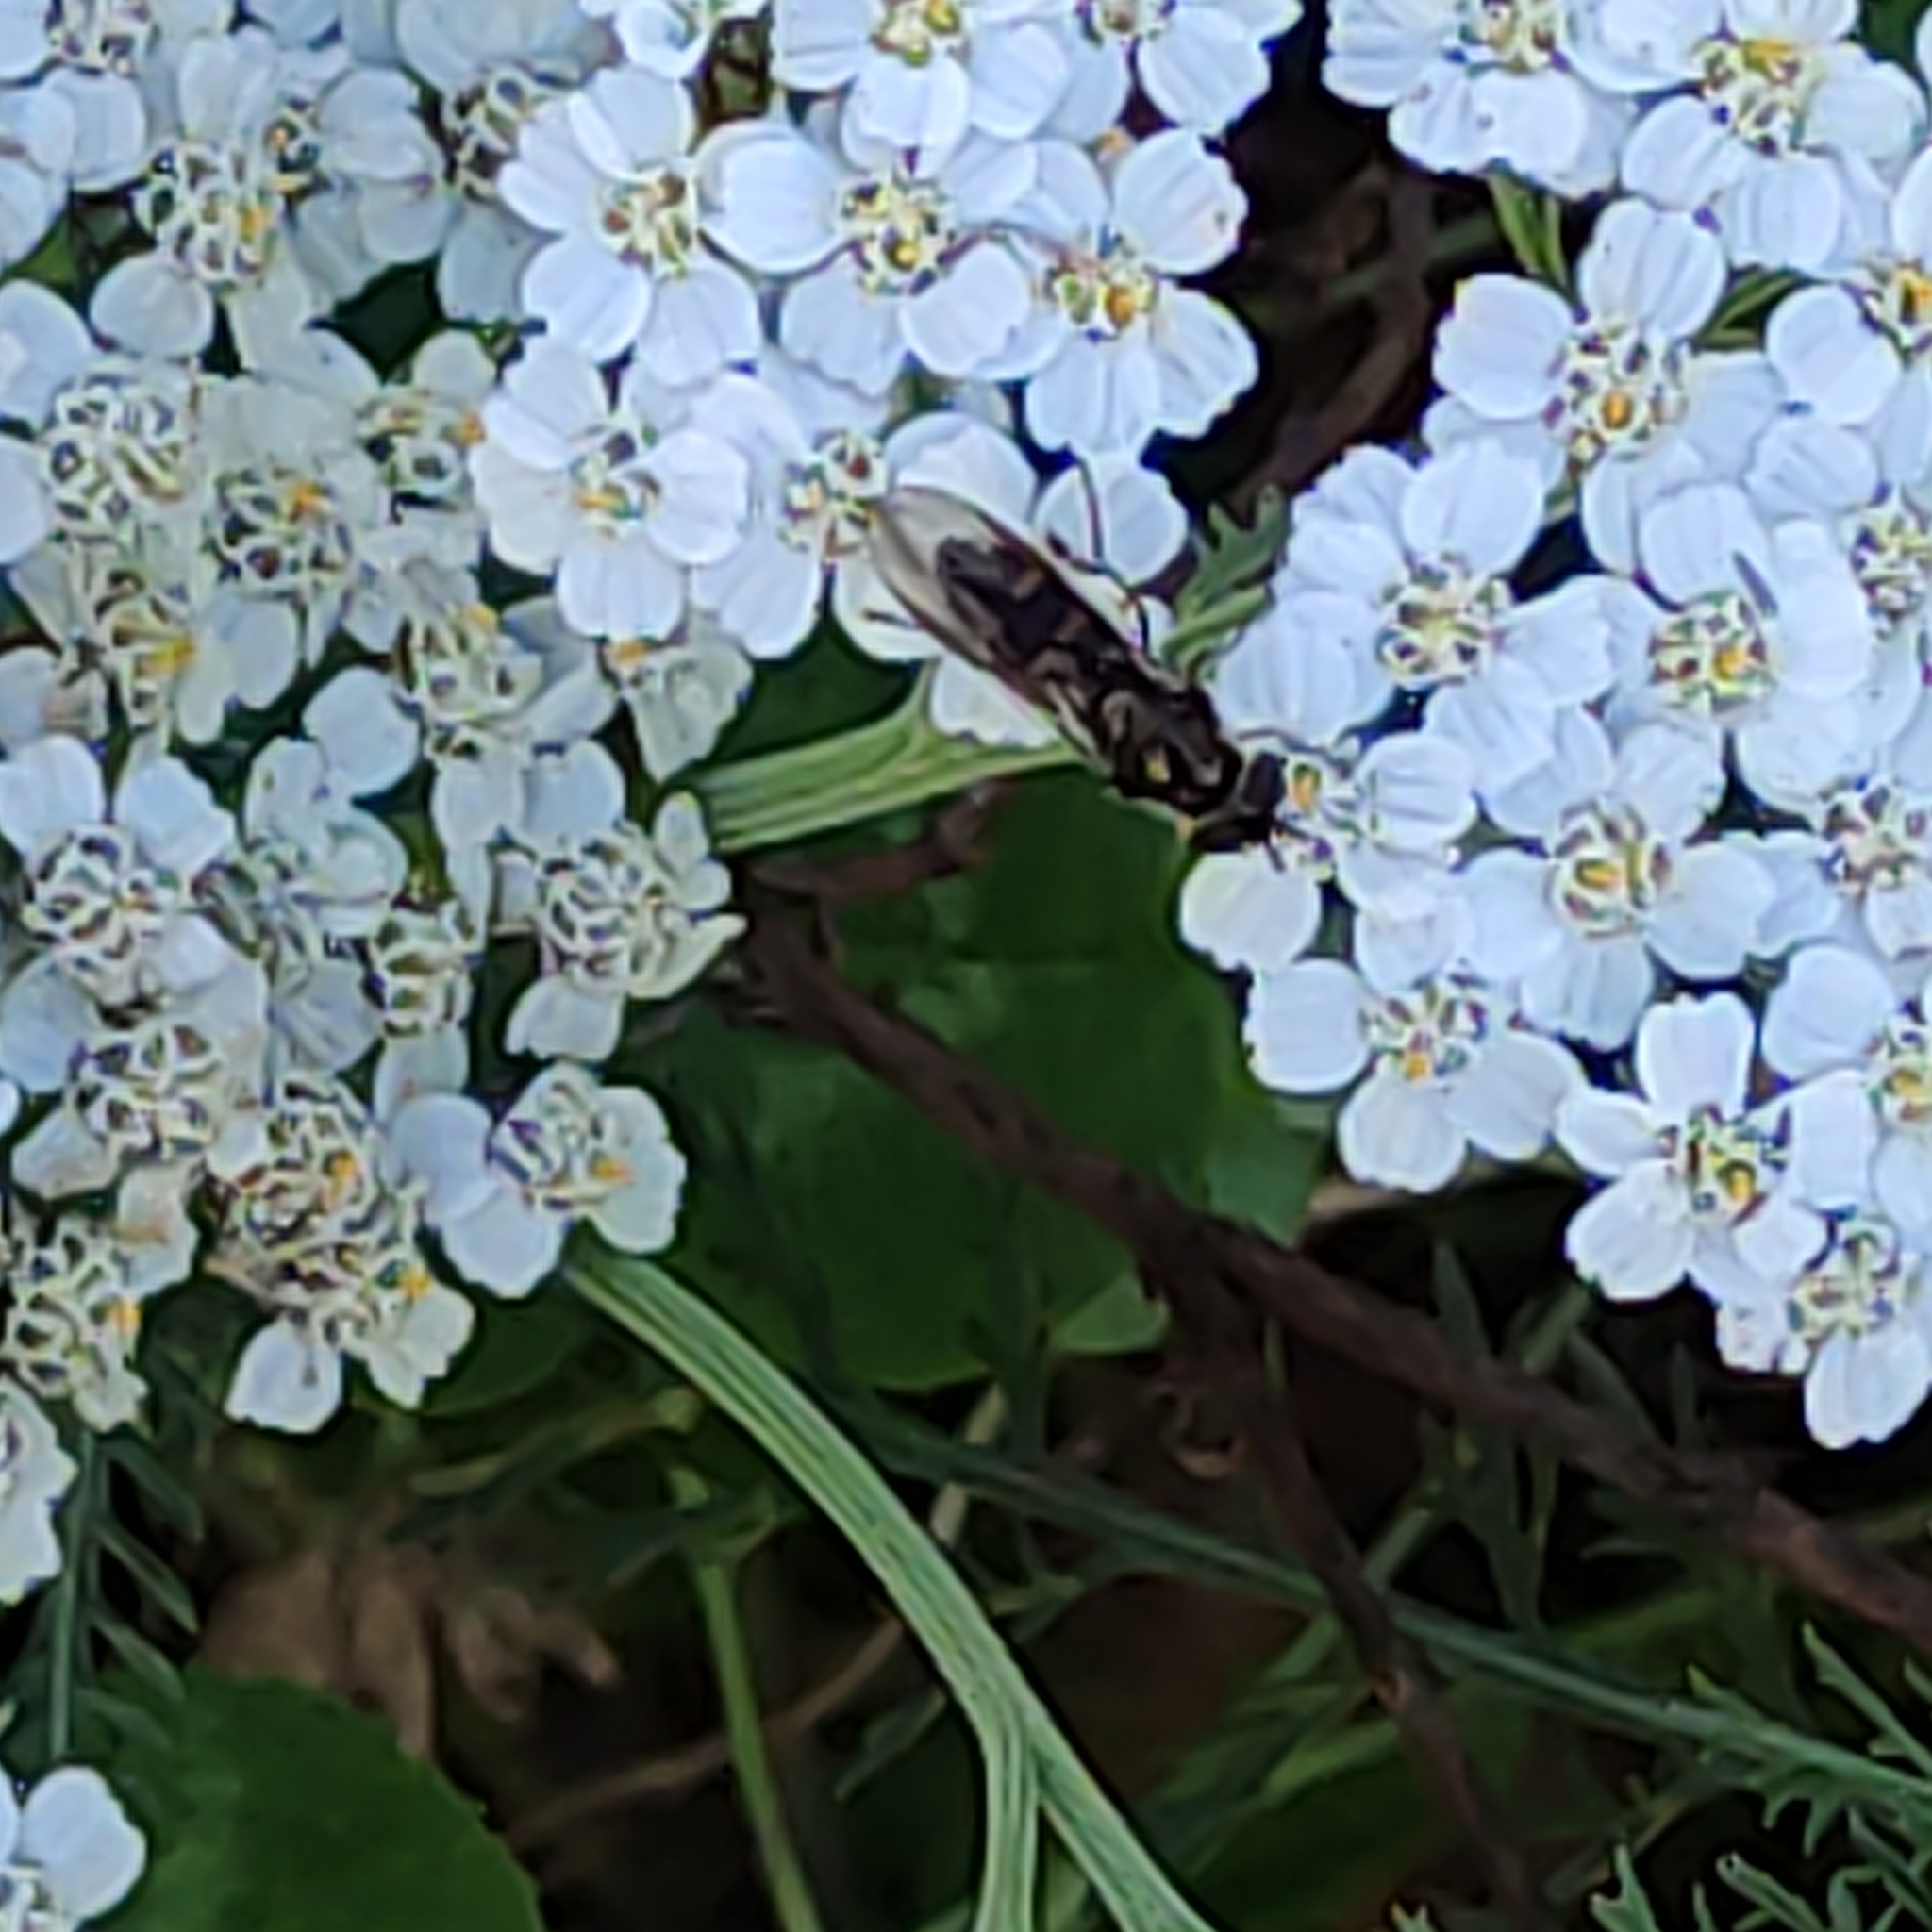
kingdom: Animalia
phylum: Arthropoda
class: Insecta
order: Diptera
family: Syrphidae
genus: Melangyna
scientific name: Melangyna novaezelandiae
